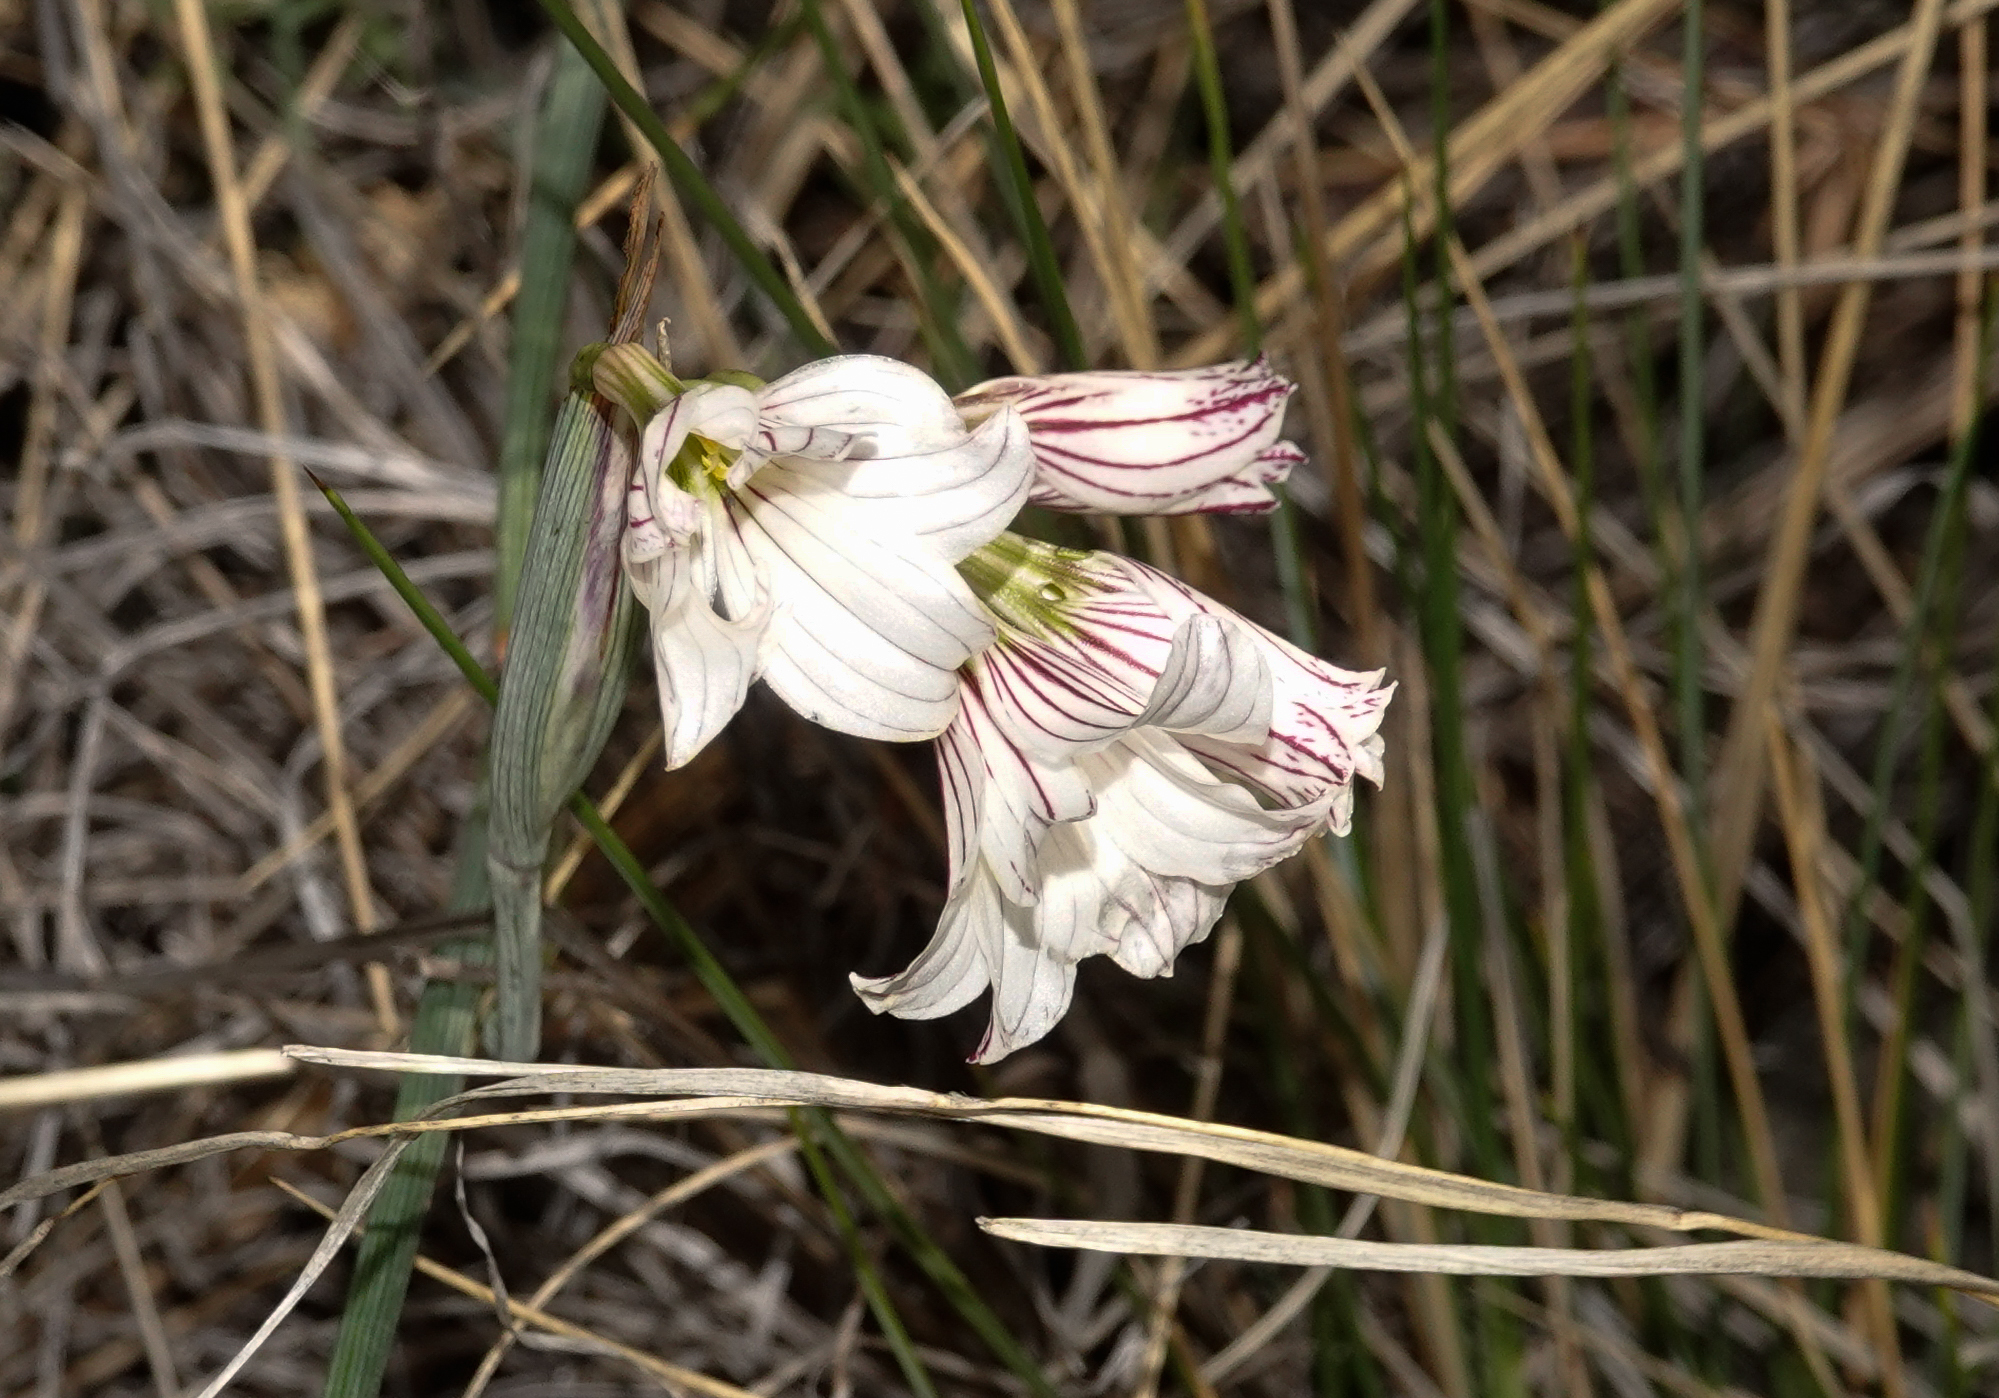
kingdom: Plantae
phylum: Tracheophyta
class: Liliopsida
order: Asparagales
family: Iridaceae
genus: Olsynium
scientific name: Olsynium biflorum
